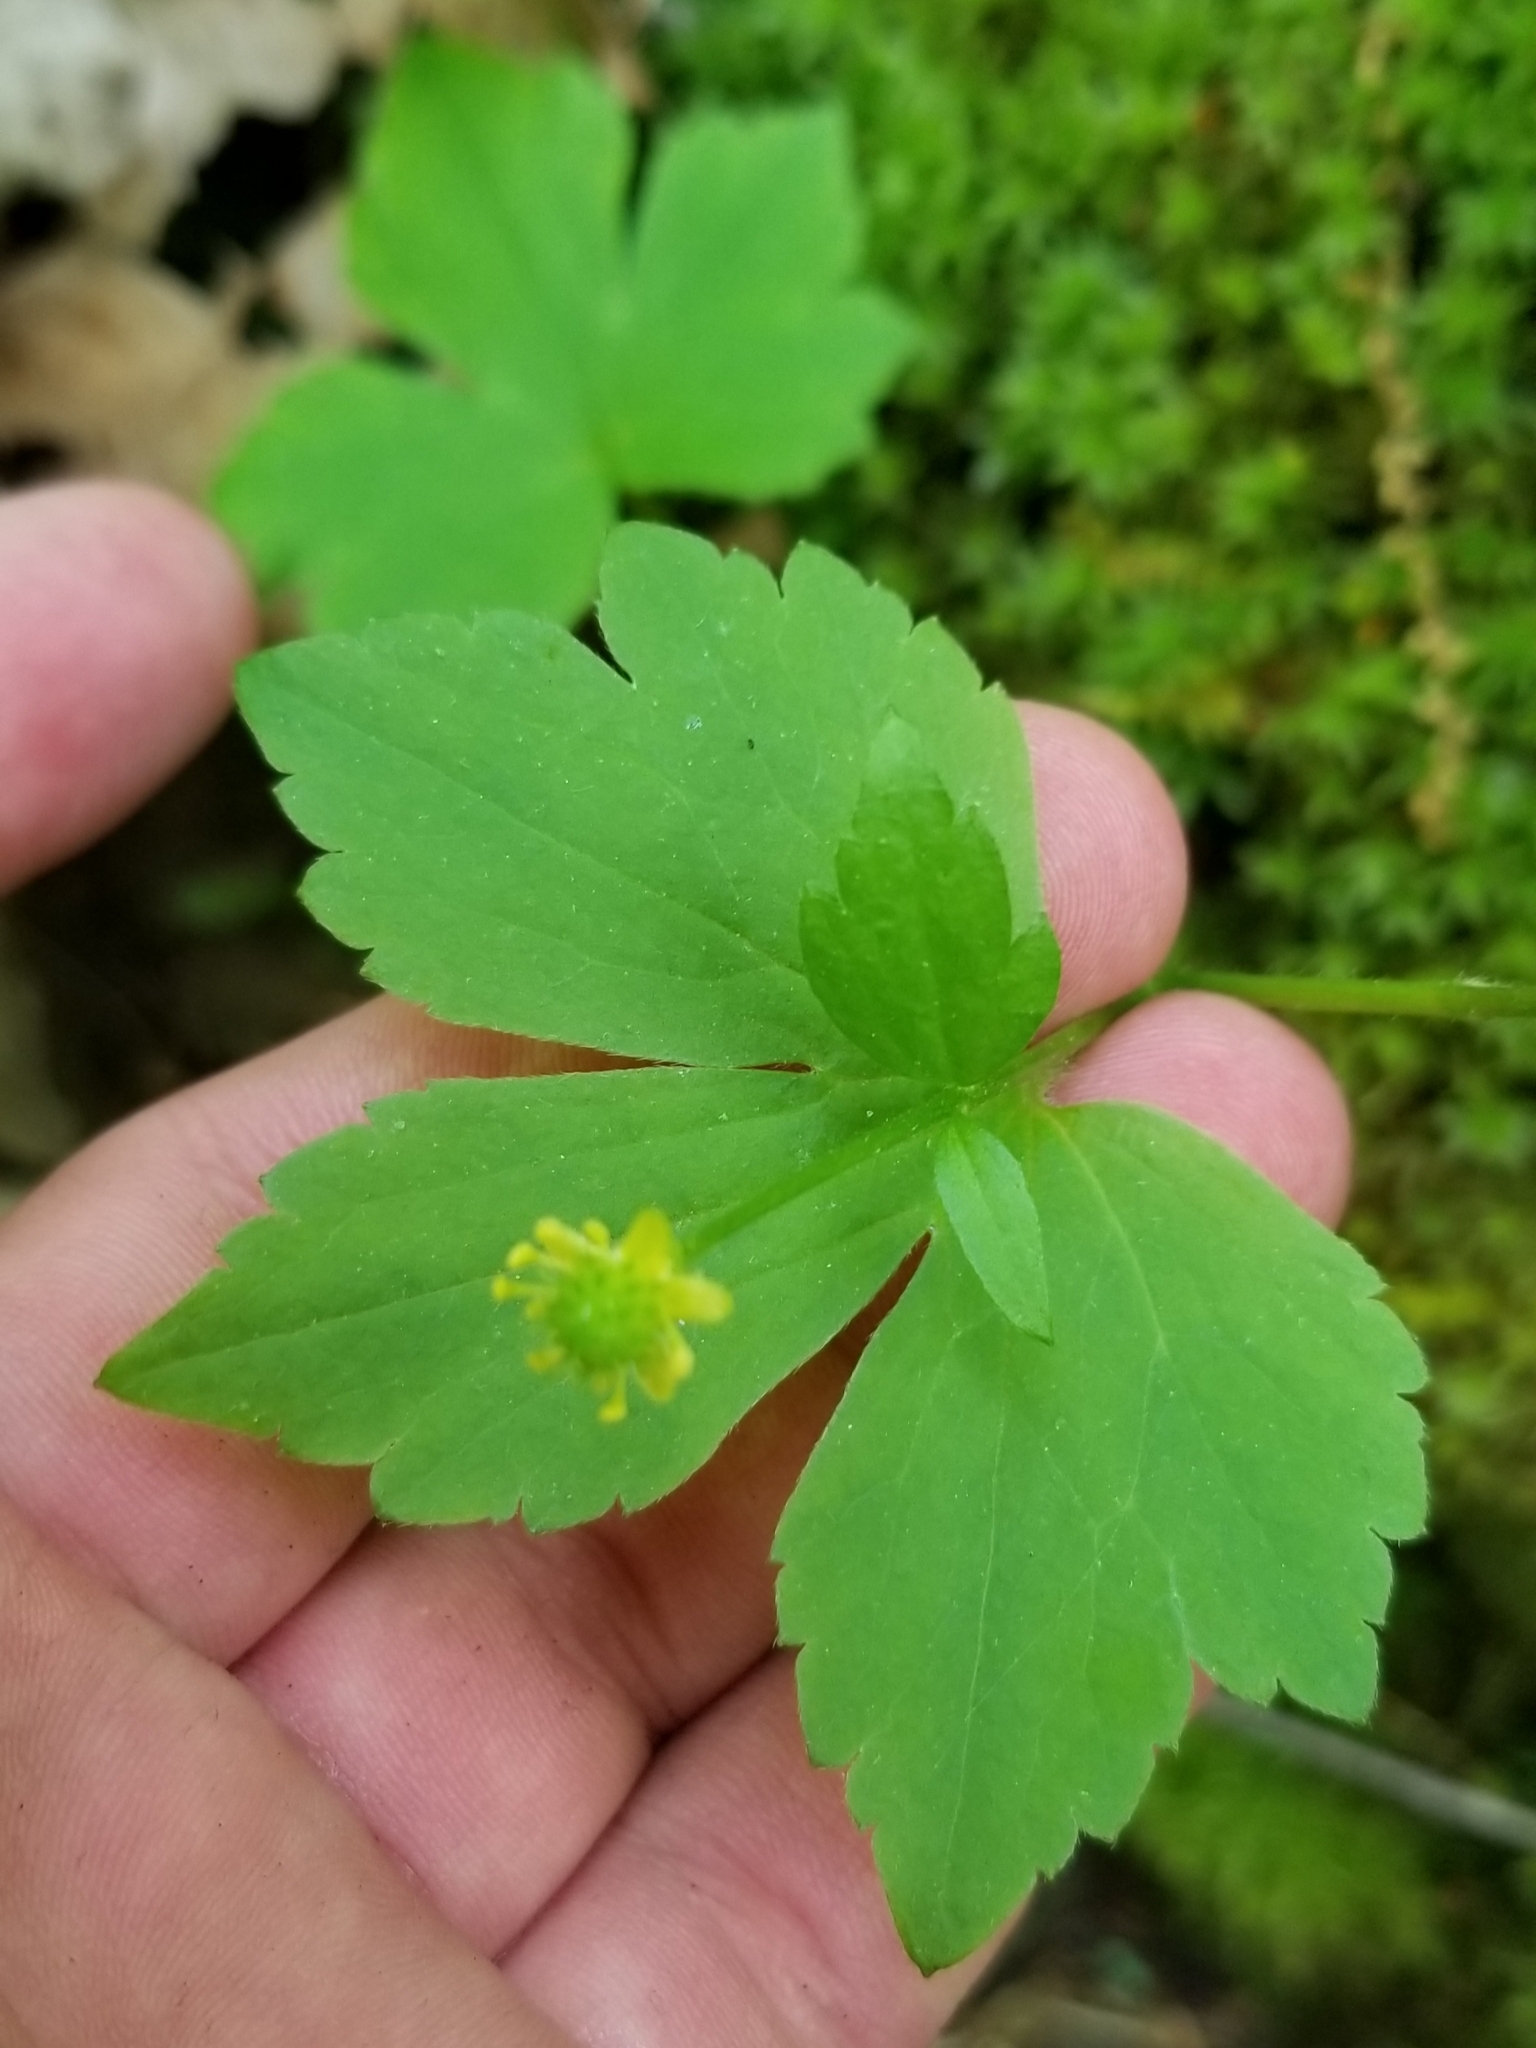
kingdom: Plantae
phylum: Tracheophyta
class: Magnoliopsida
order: Ranunculales
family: Ranunculaceae
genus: Ranunculus
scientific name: Ranunculus recurvatus
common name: Blisterwort
